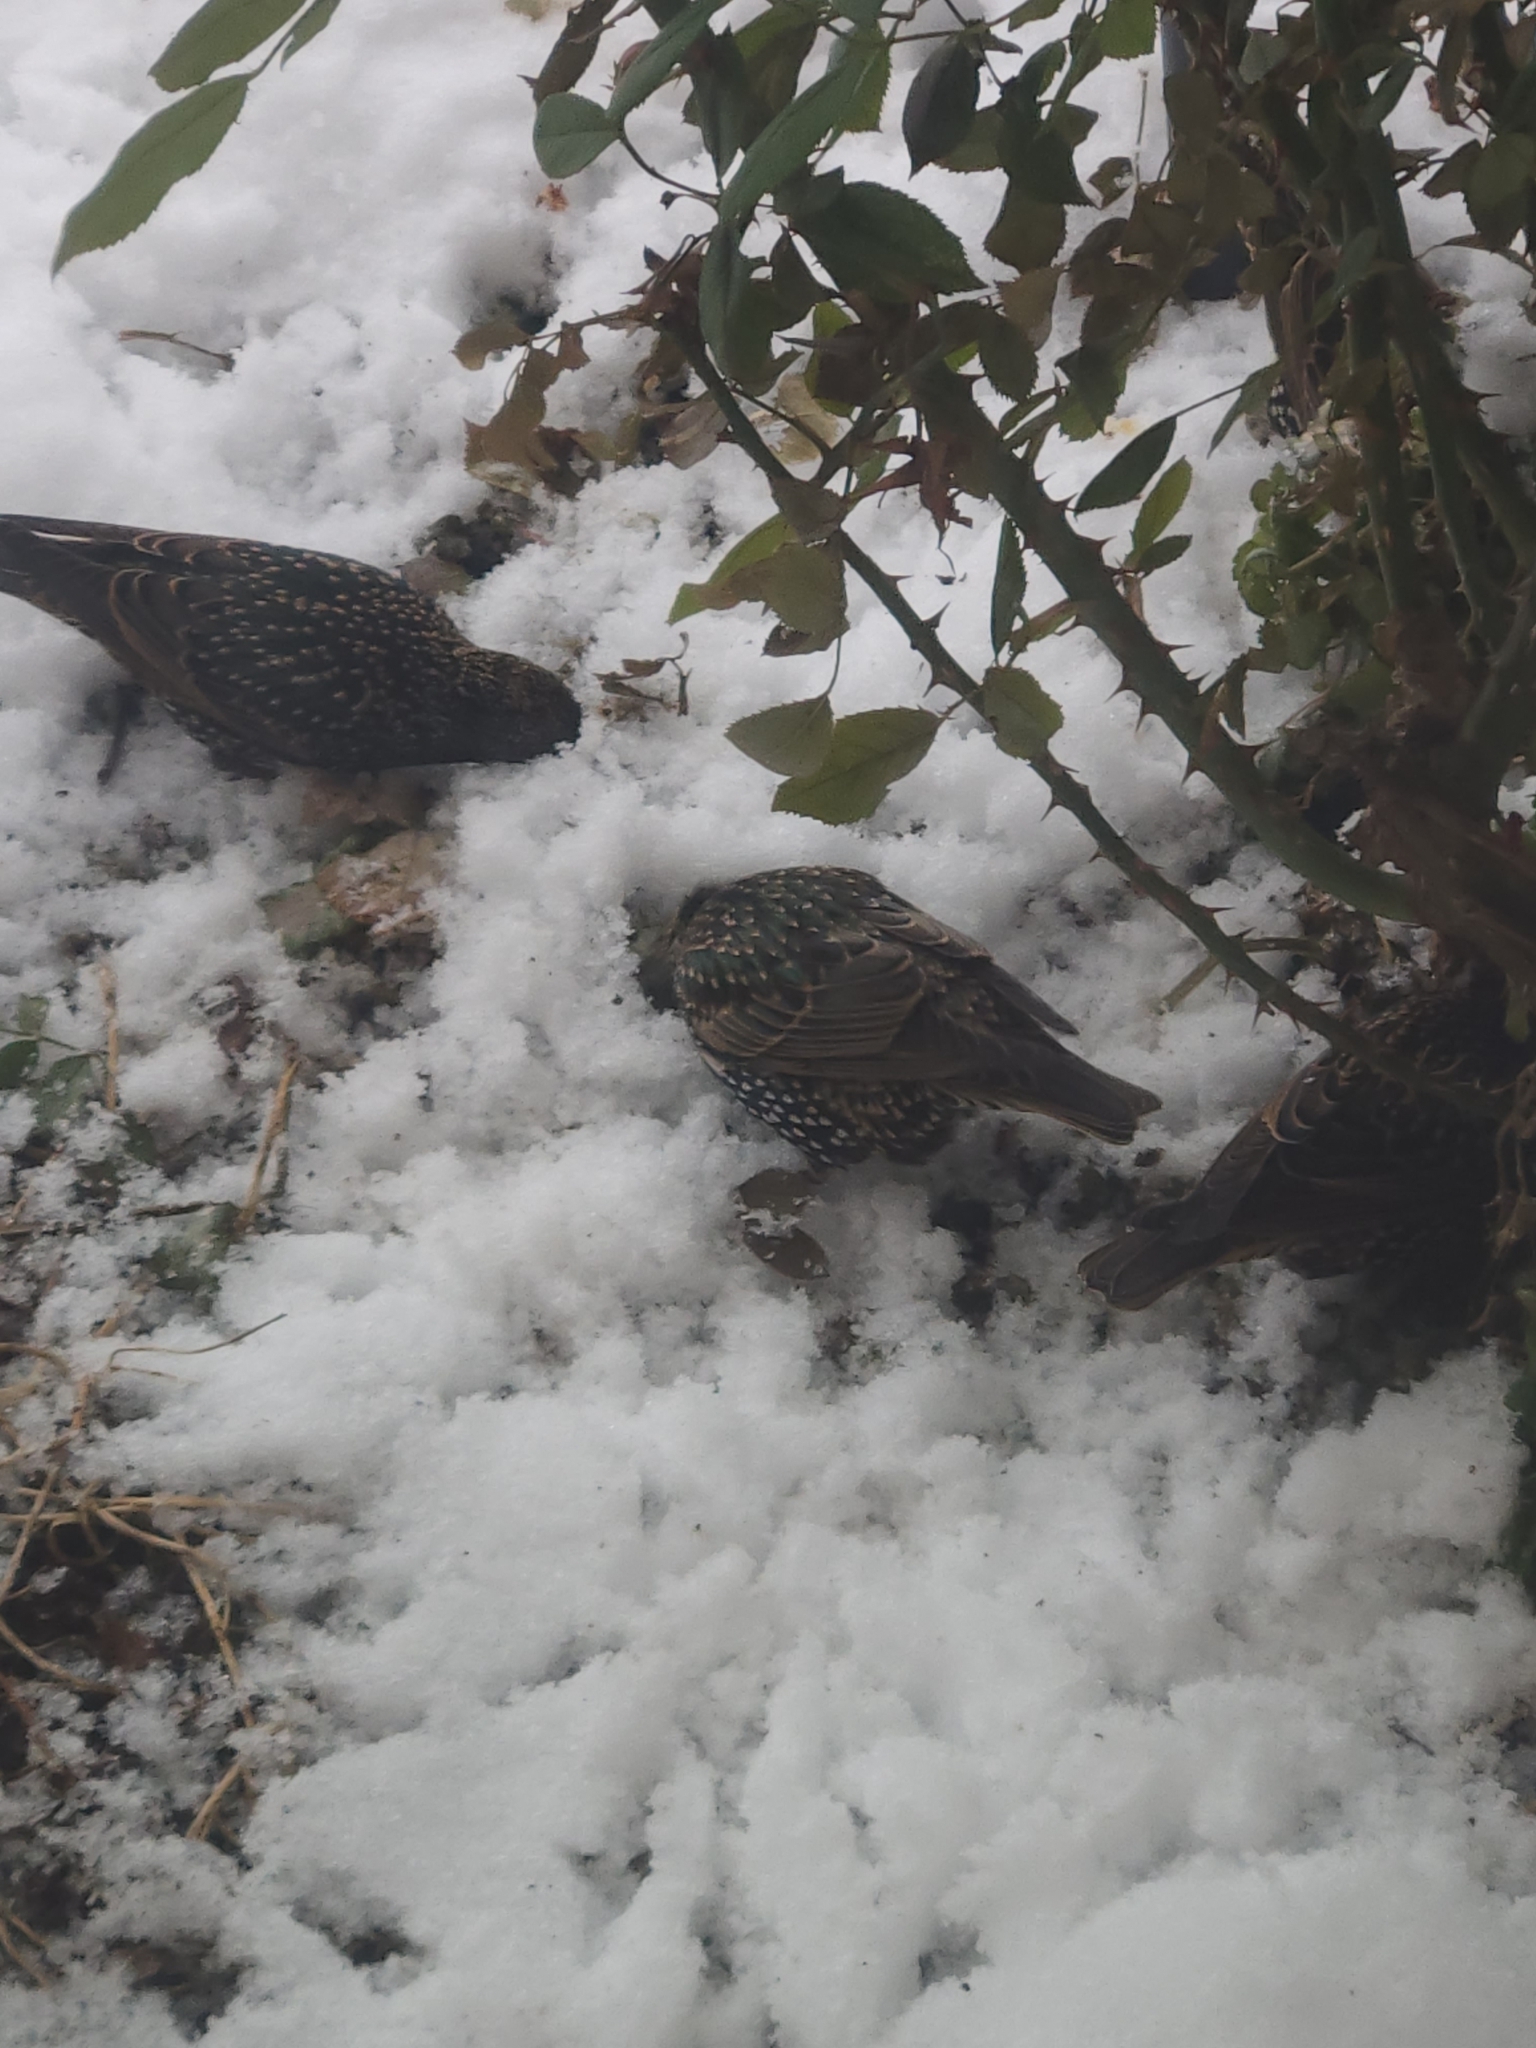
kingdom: Animalia
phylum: Chordata
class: Aves
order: Passeriformes
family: Sturnidae
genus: Sturnus
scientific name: Sturnus vulgaris
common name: Common starling
